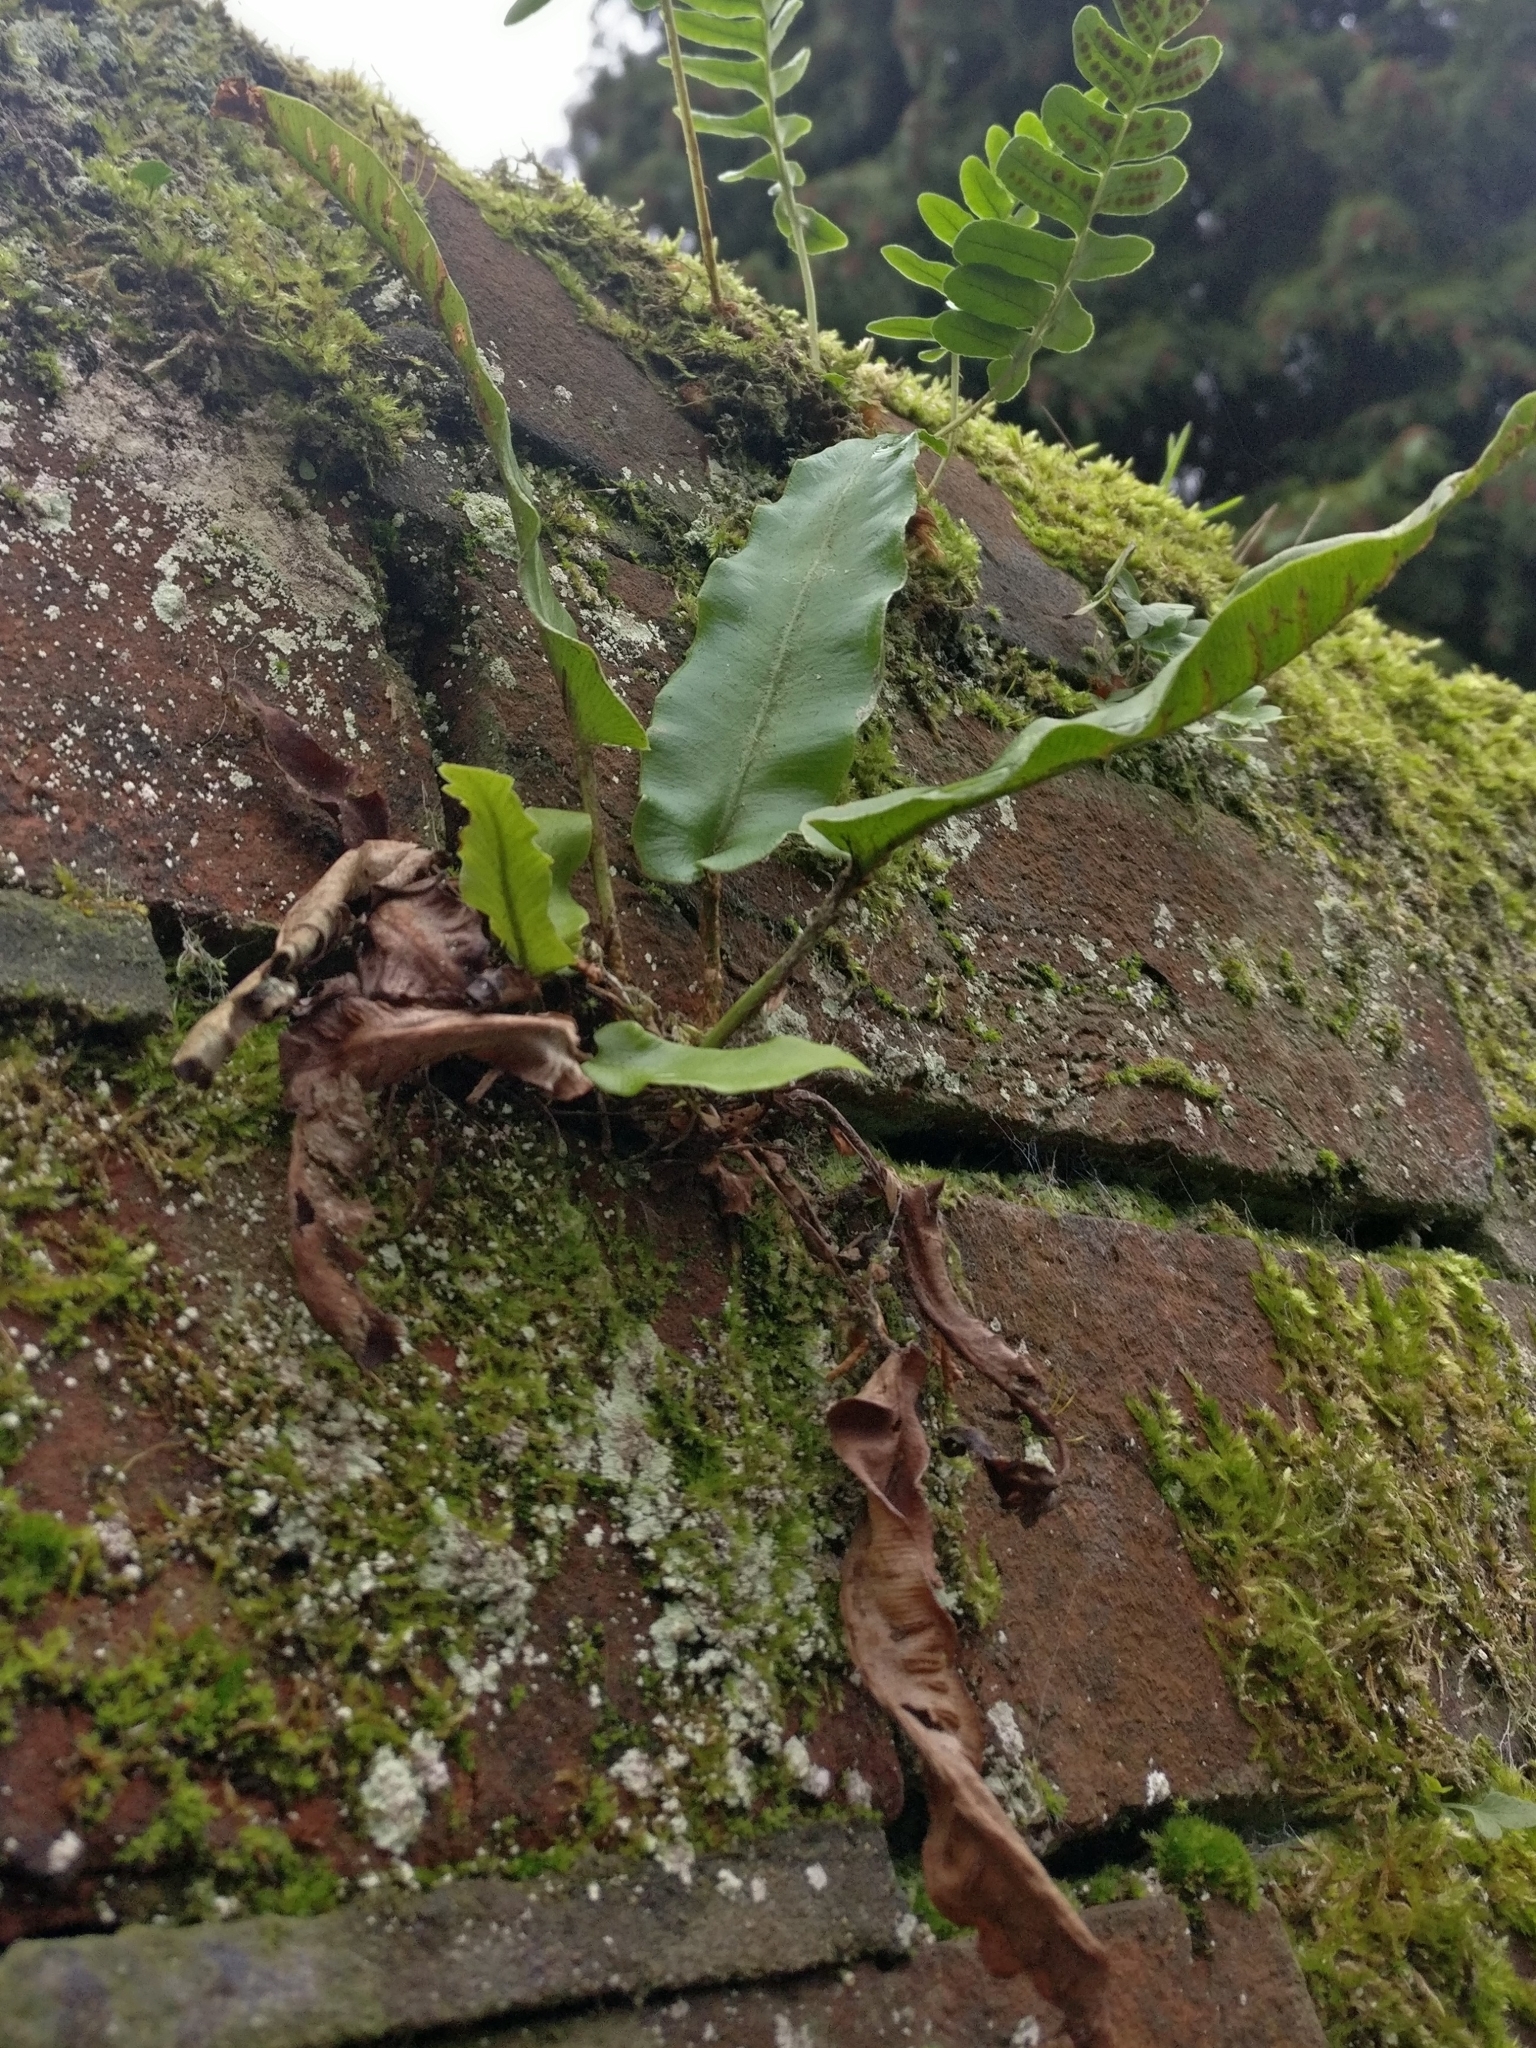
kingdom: Plantae
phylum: Tracheophyta
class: Polypodiopsida
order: Polypodiales
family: Aspleniaceae
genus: Asplenium
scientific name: Asplenium scolopendrium
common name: Hart's-tongue fern
